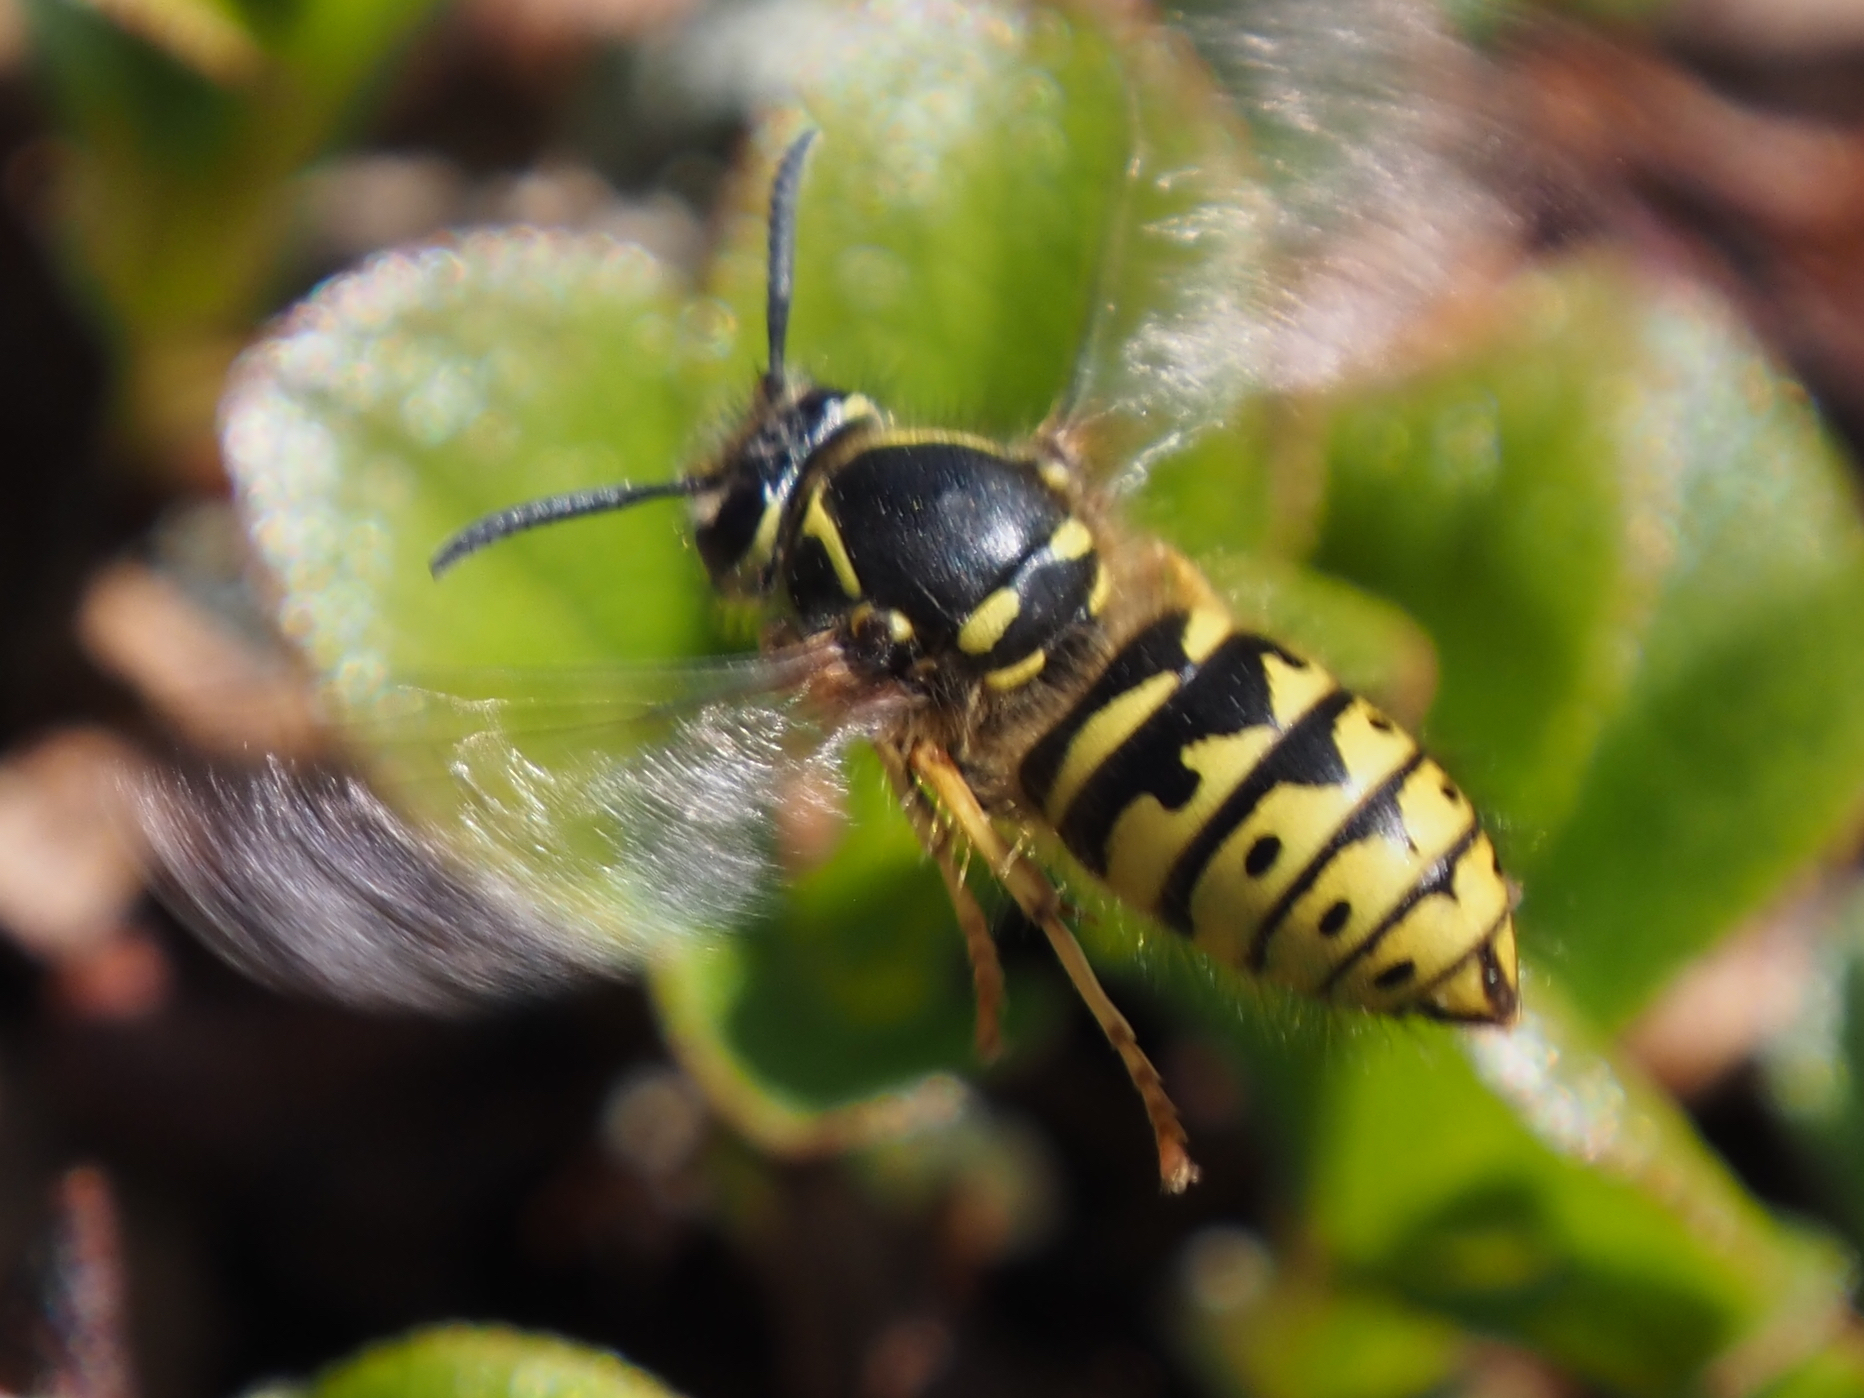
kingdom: Animalia
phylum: Arthropoda
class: Insecta
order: Hymenoptera
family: Vespidae
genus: Dolichovespula
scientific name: Dolichovespula arenaria
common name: Aerial yellowjacket
